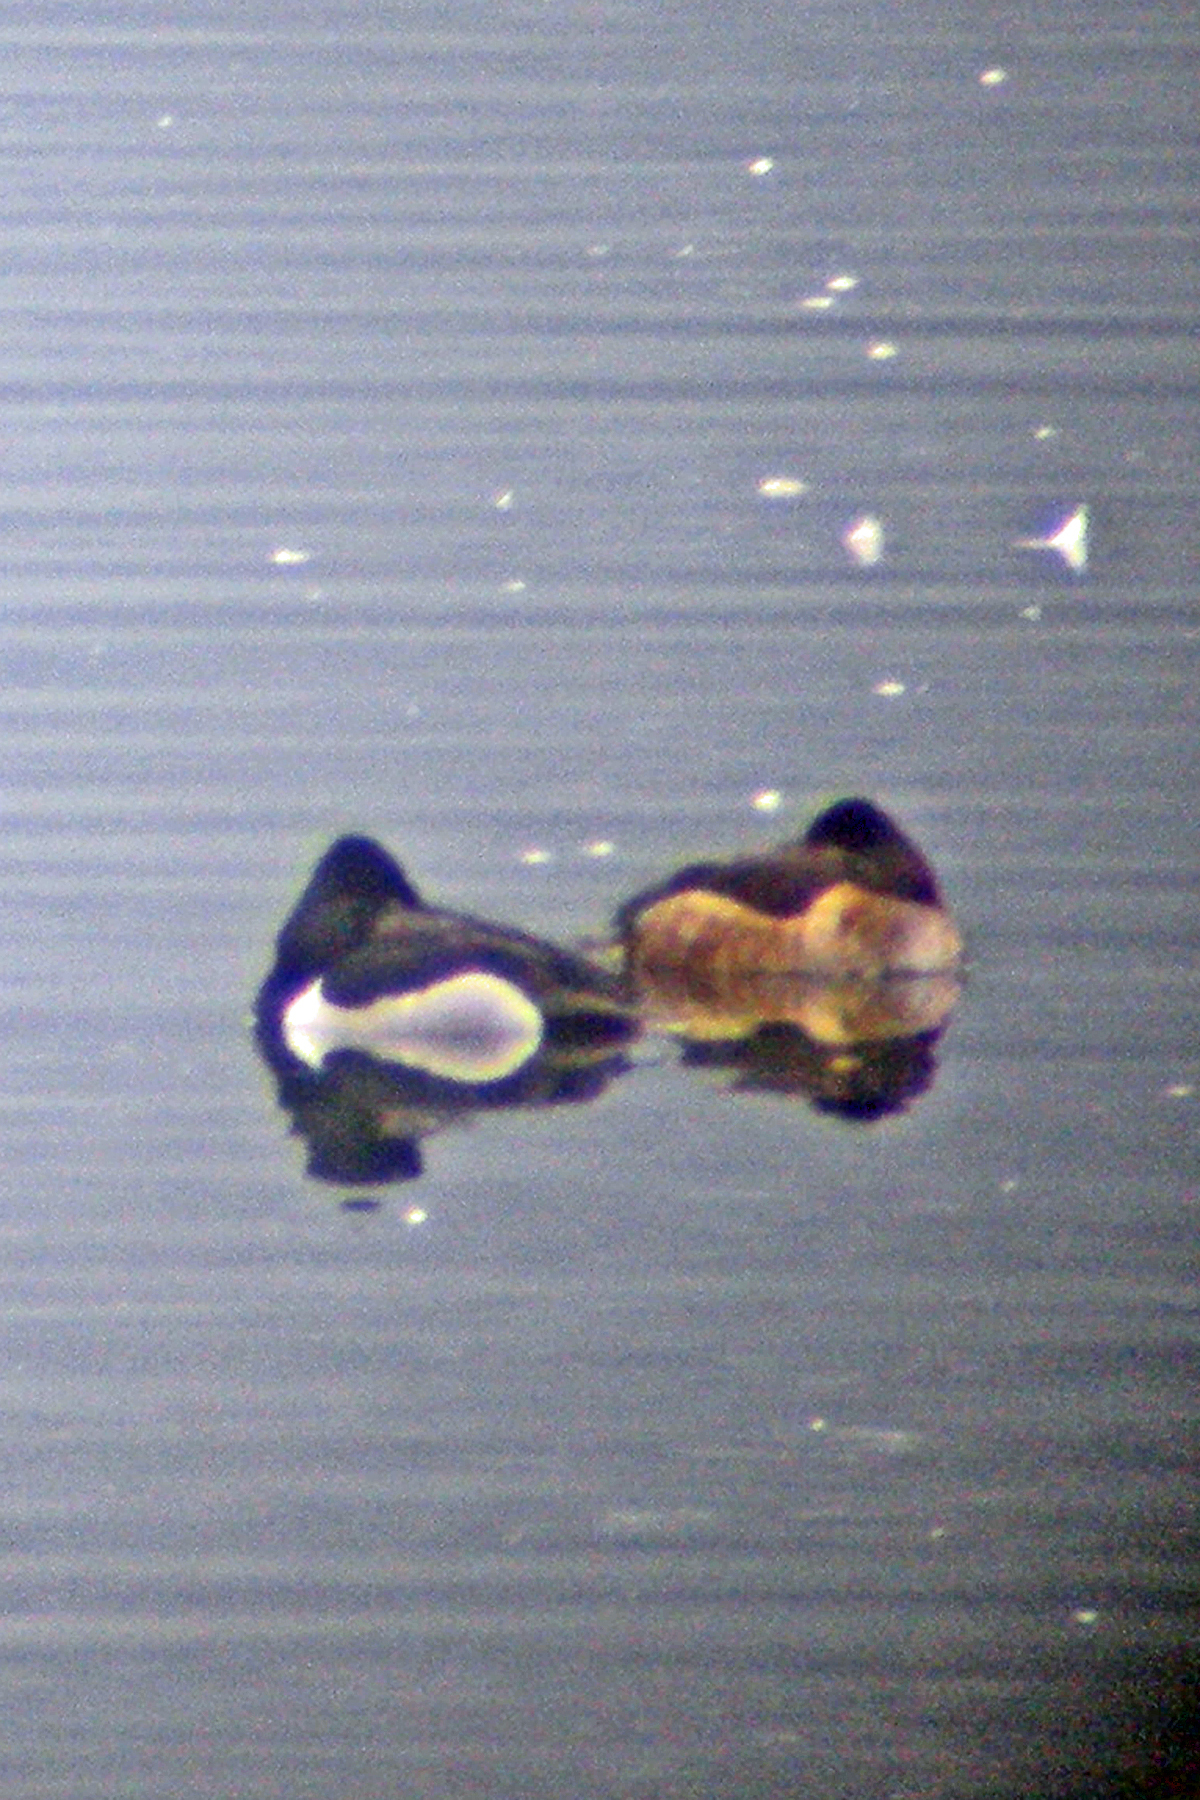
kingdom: Animalia
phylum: Chordata
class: Aves
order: Anseriformes
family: Anatidae
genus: Aythya
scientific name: Aythya collaris
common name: Ring-necked duck
